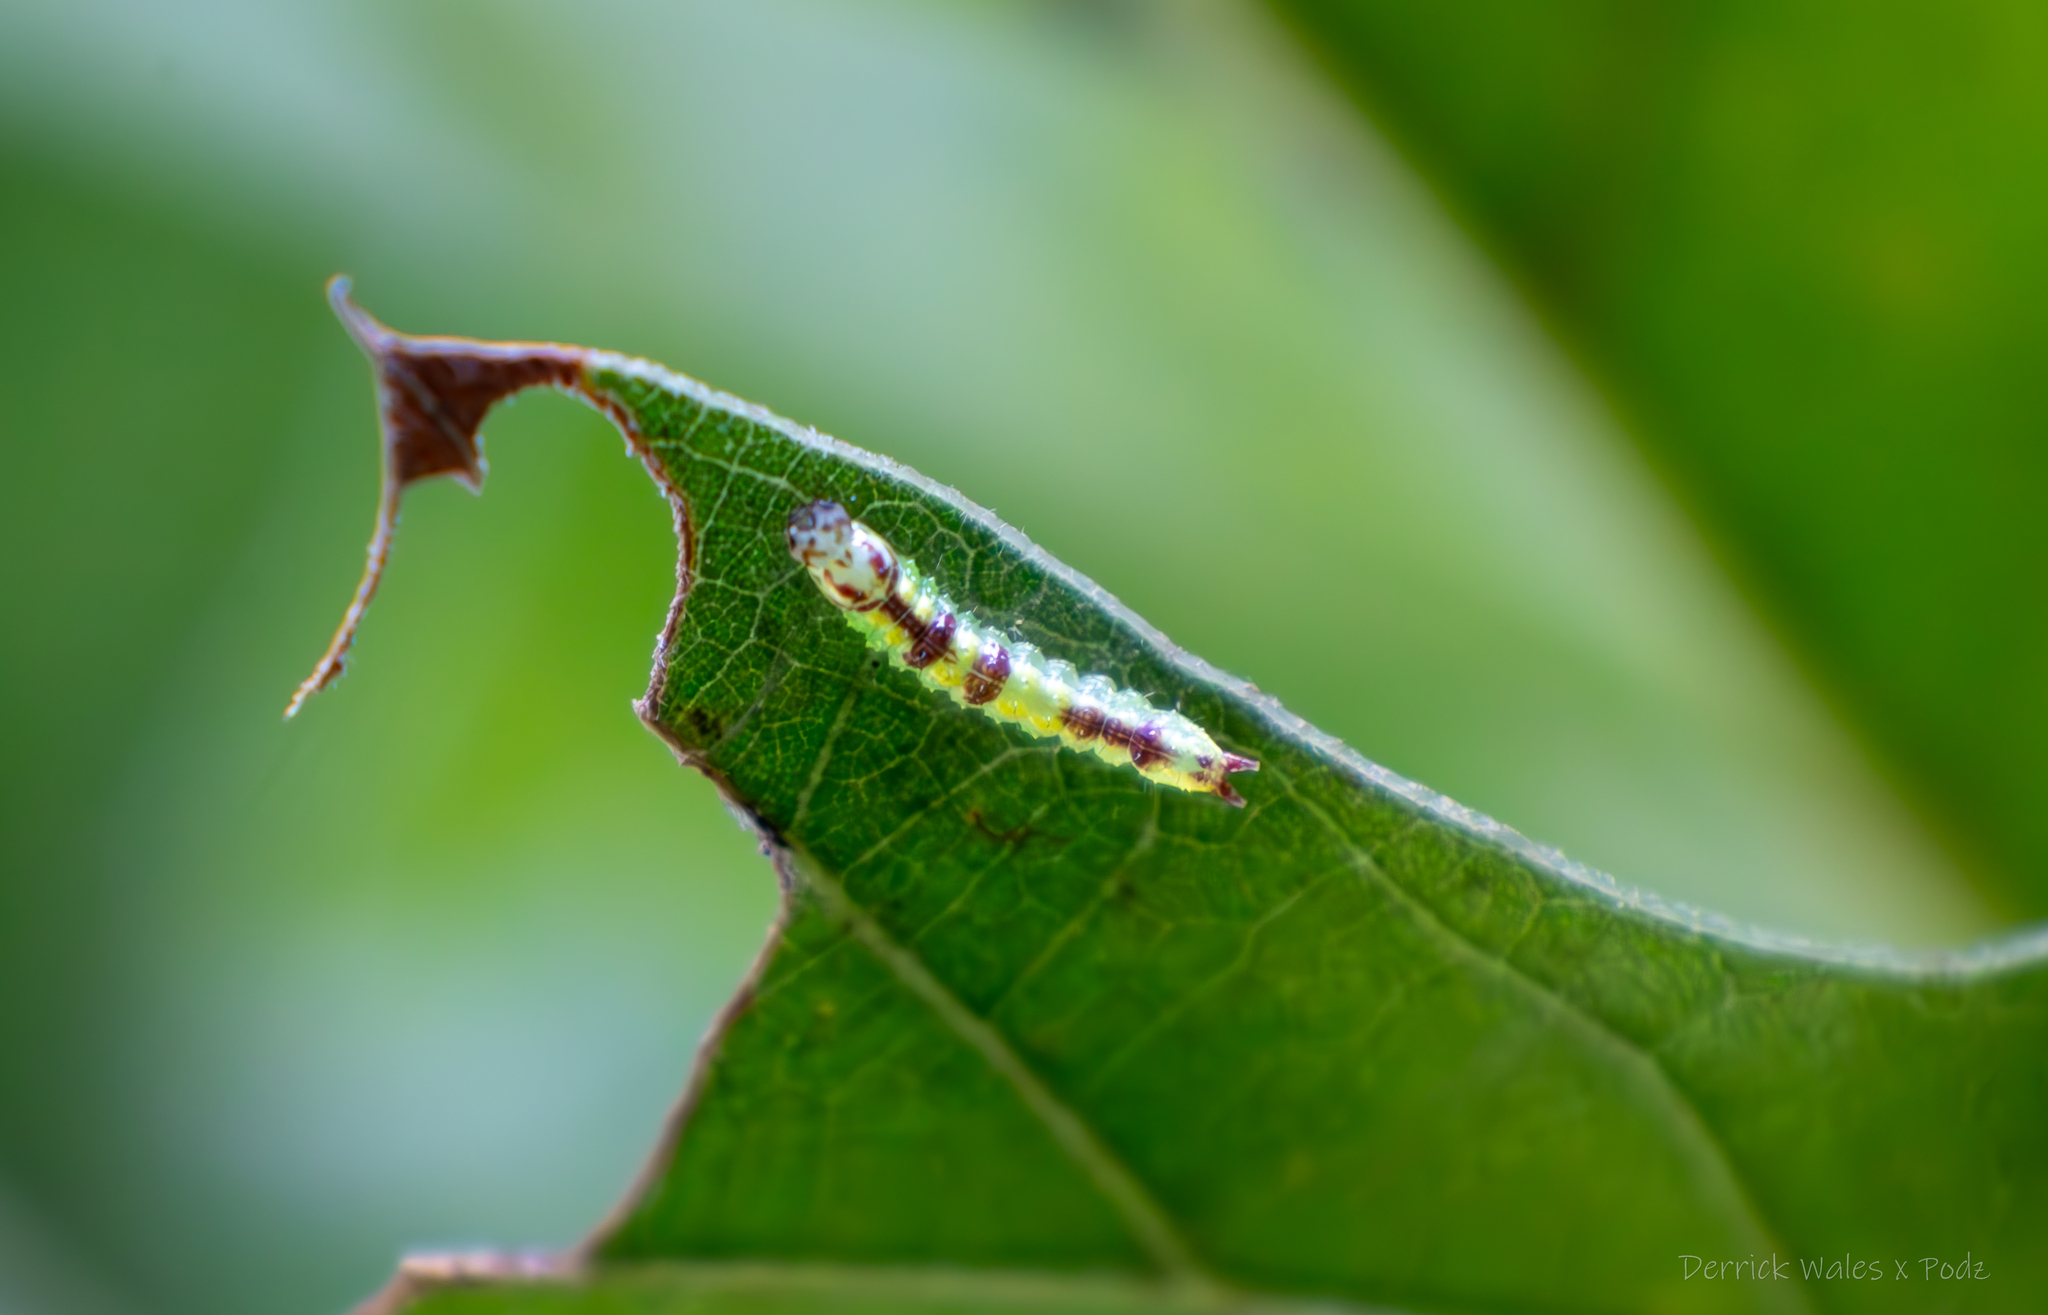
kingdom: Animalia
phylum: Arthropoda
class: Insecta
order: Lepidoptera
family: Notodontidae
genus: Lochmaeus
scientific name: Lochmaeus manteo
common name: Variable oakleaf caterpillar moth
